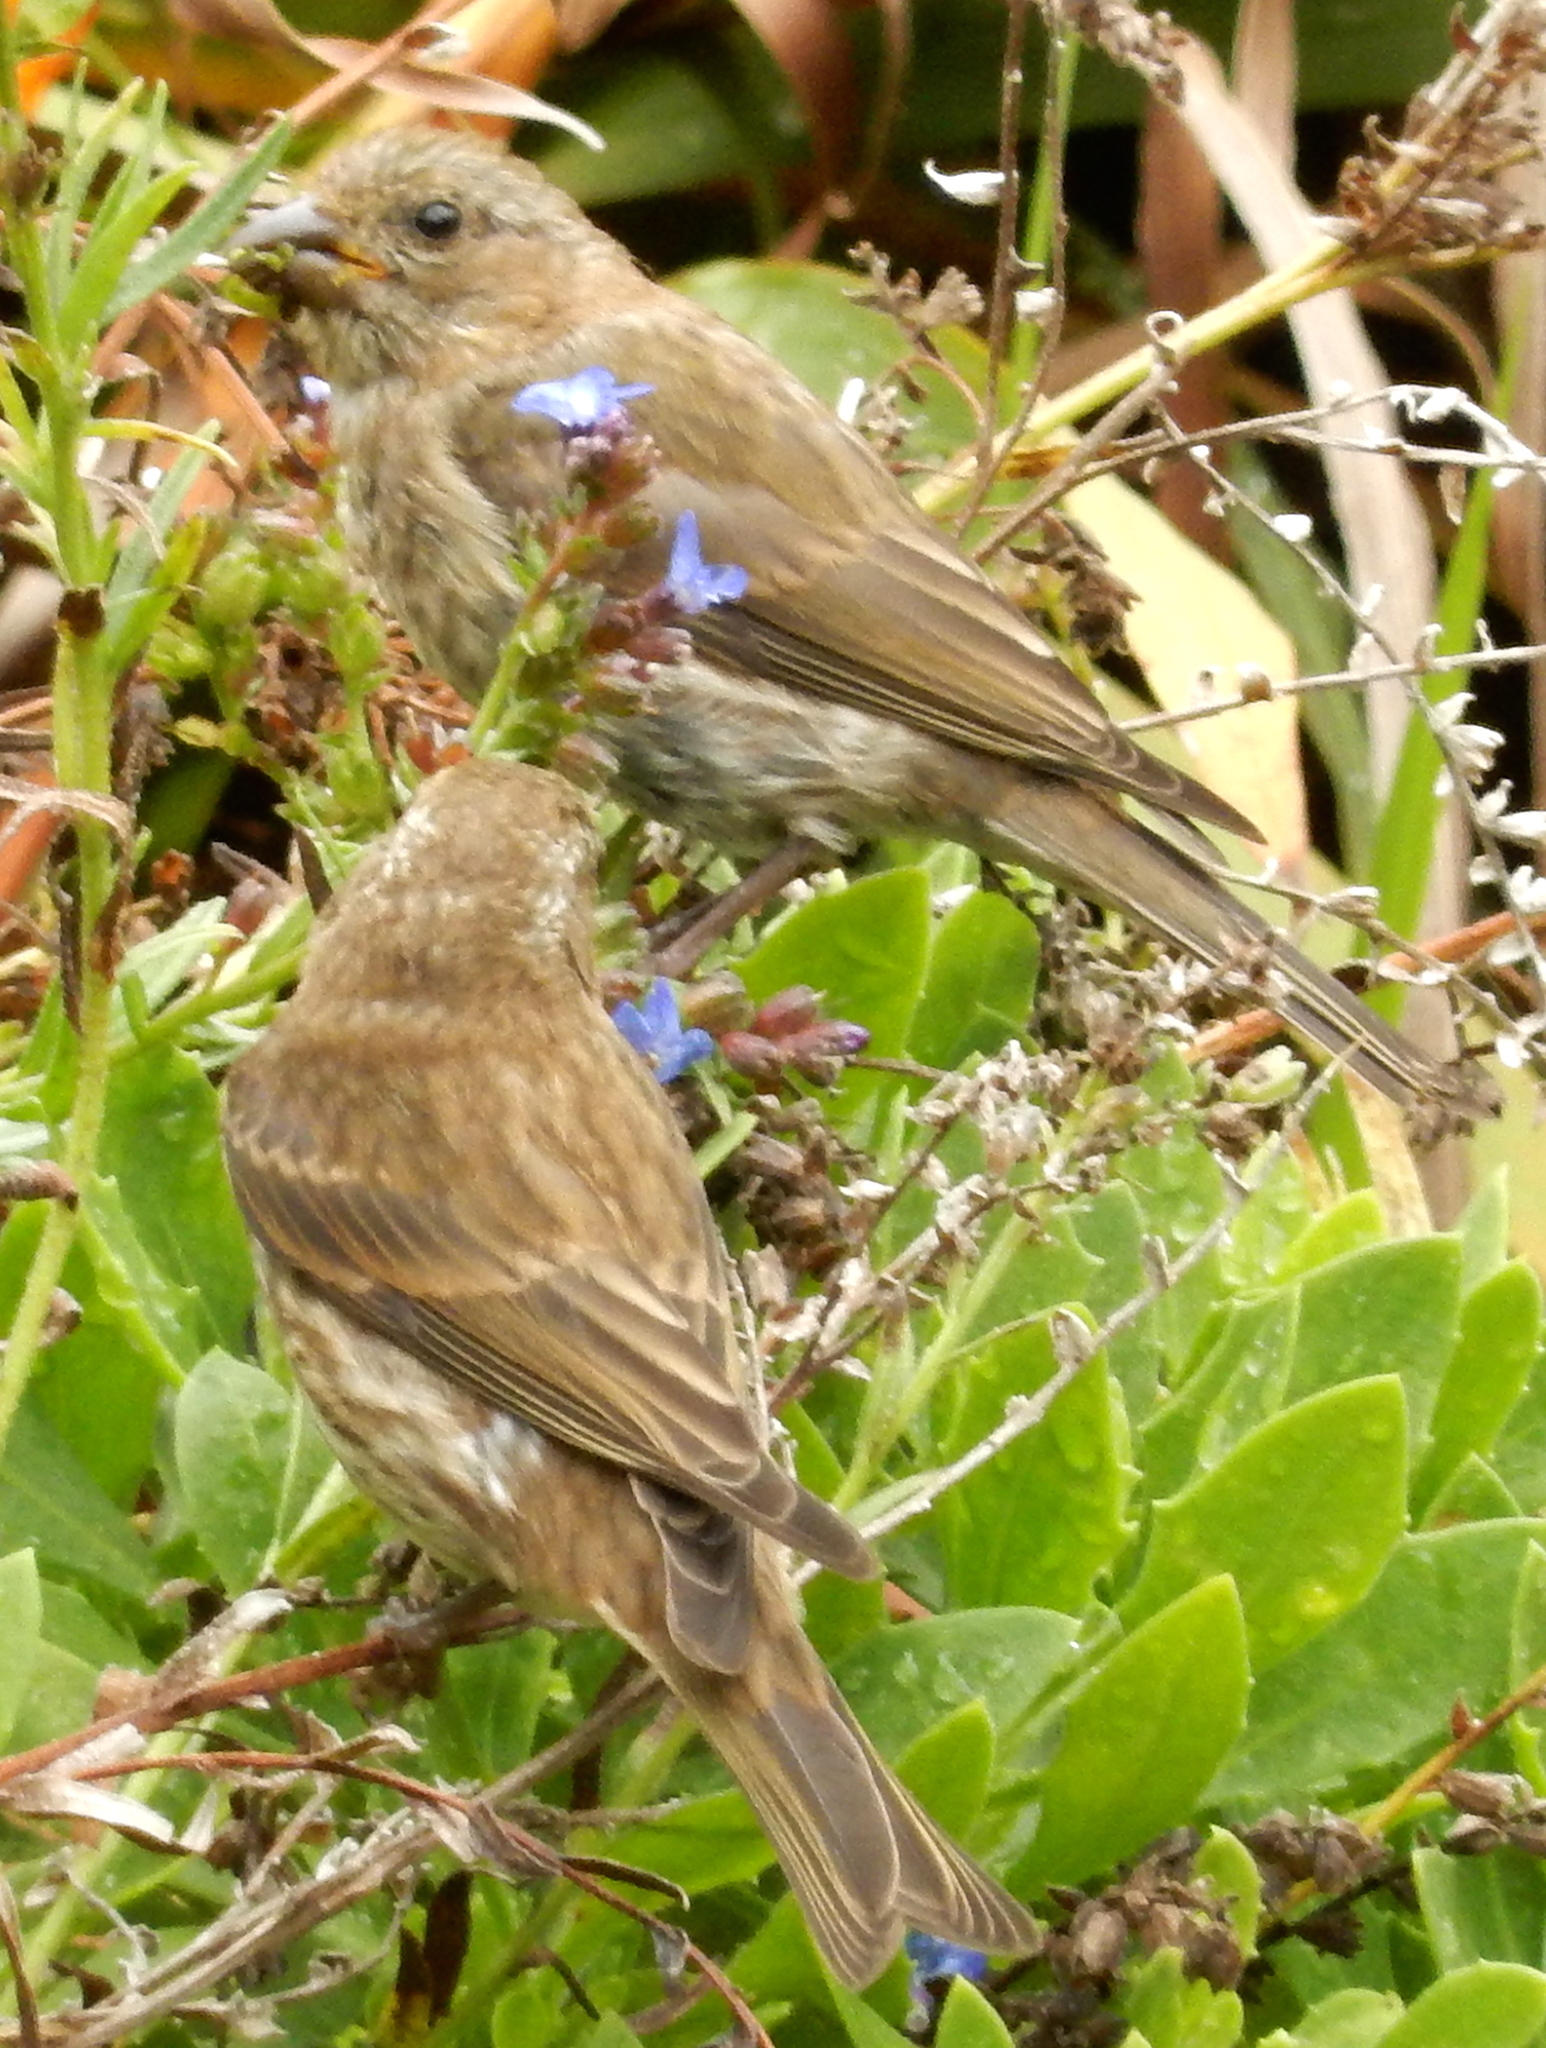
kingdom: Animalia
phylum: Chordata
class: Aves
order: Passeriformes
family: Fringillidae
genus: Haemorhous
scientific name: Haemorhous purpureus
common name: Purple finch
